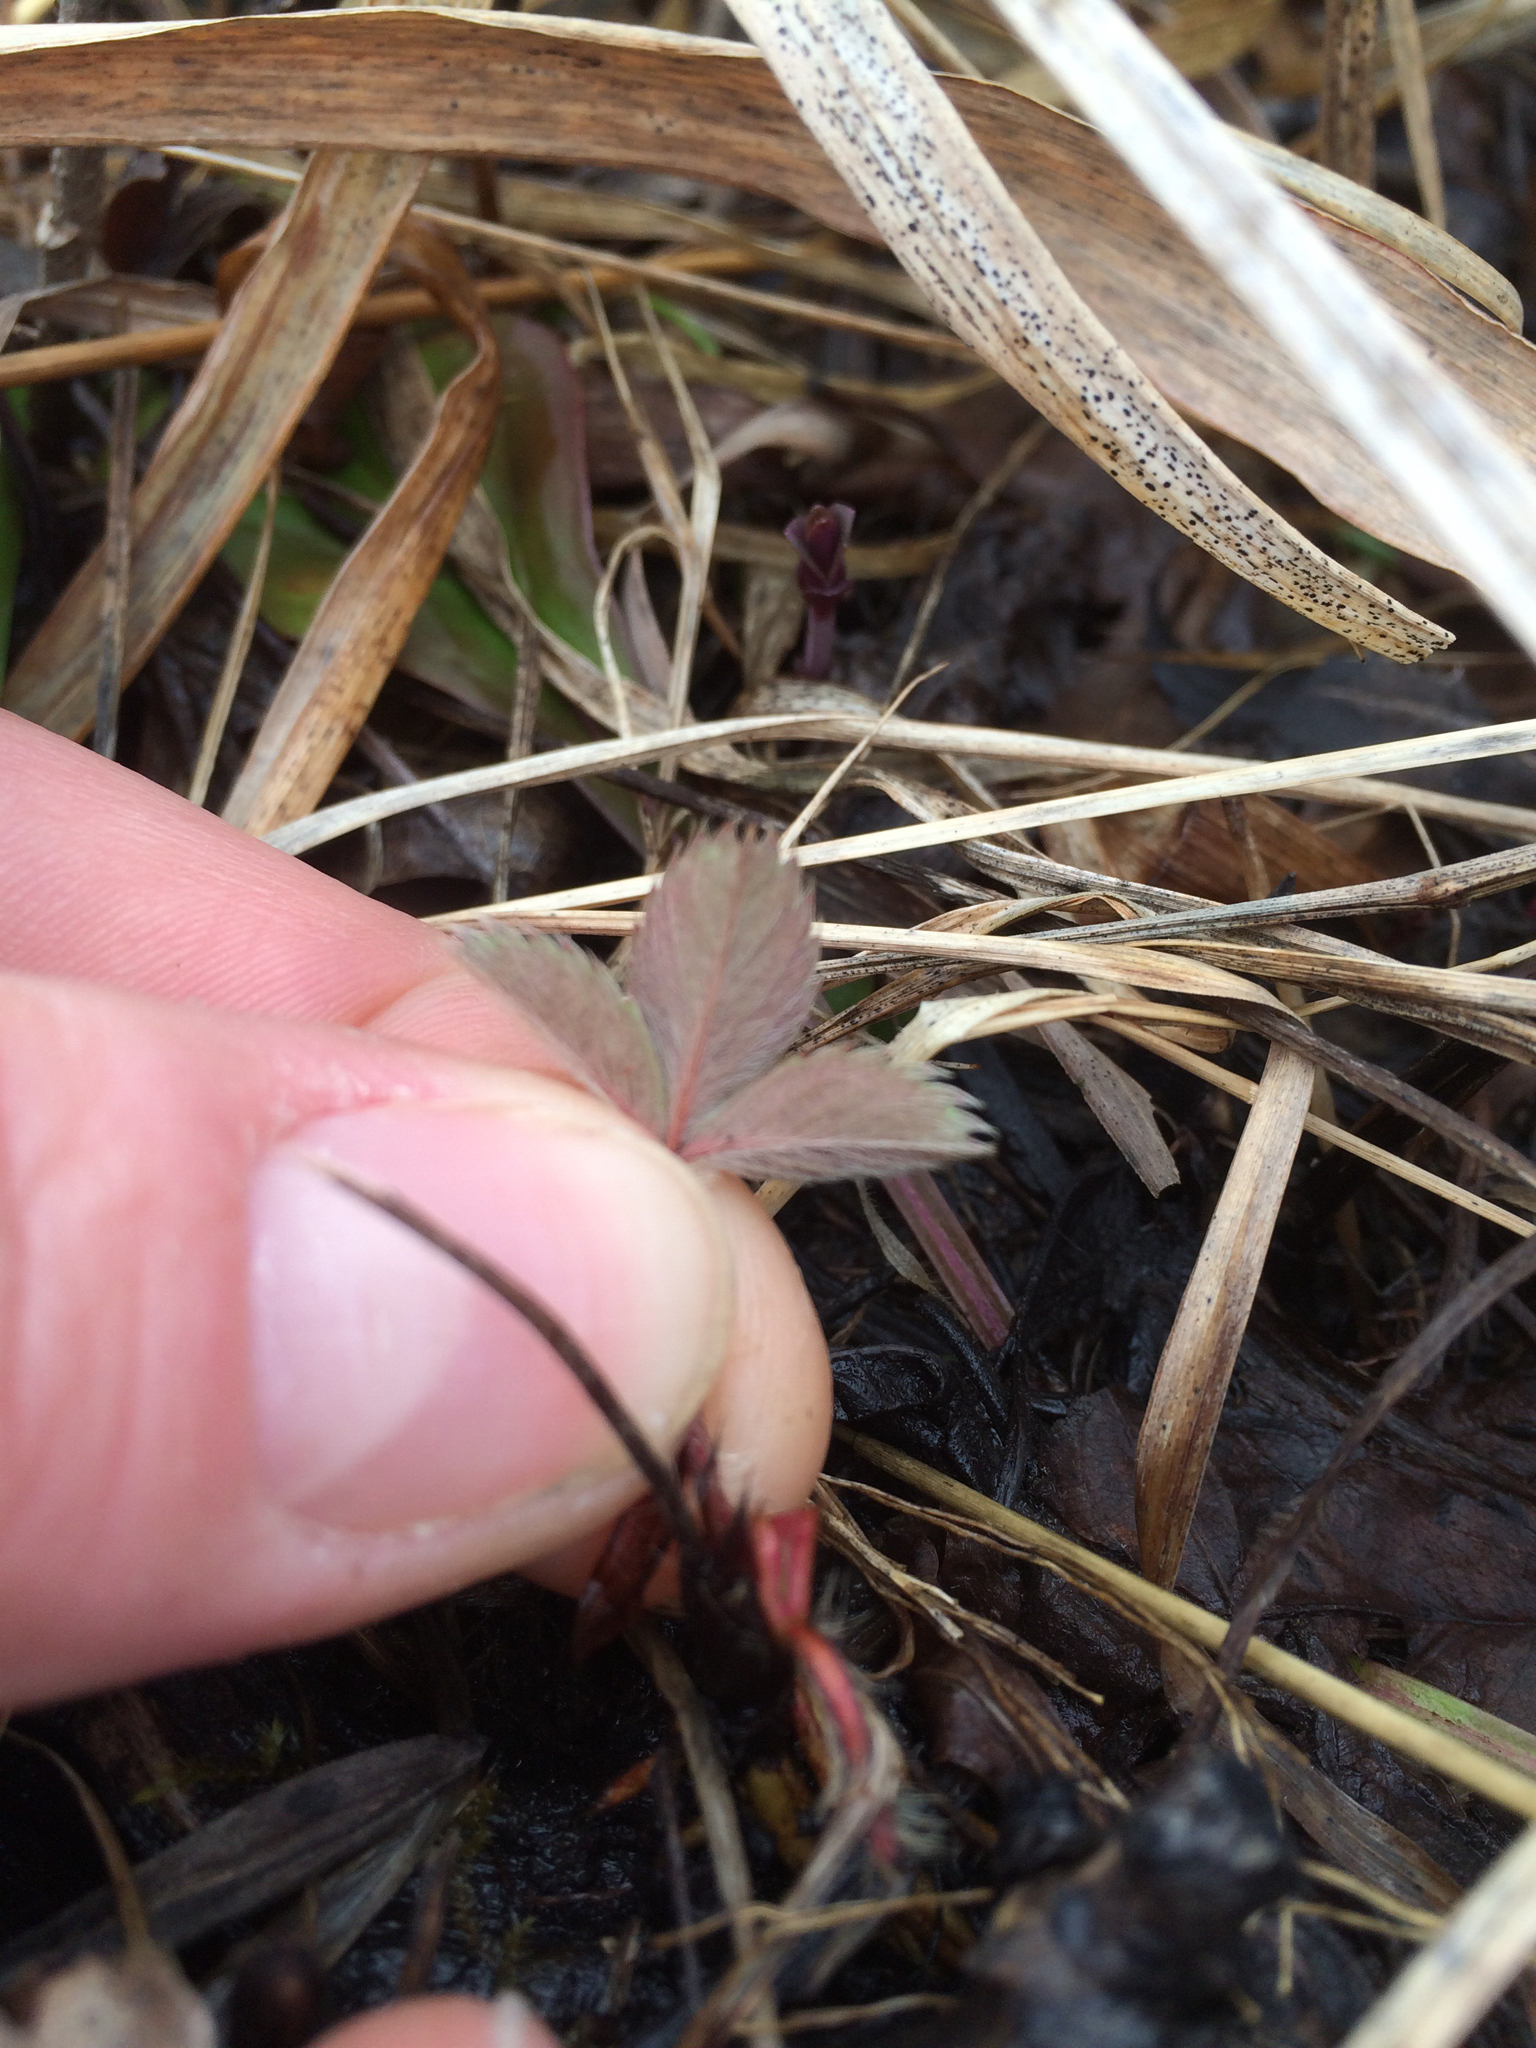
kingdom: Plantae
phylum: Tracheophyta
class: Magnoliopsida
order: Rosales
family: Rosaceae
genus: Fragaria
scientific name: Fragaria virginiana
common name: Thickleaved wild strawberry
